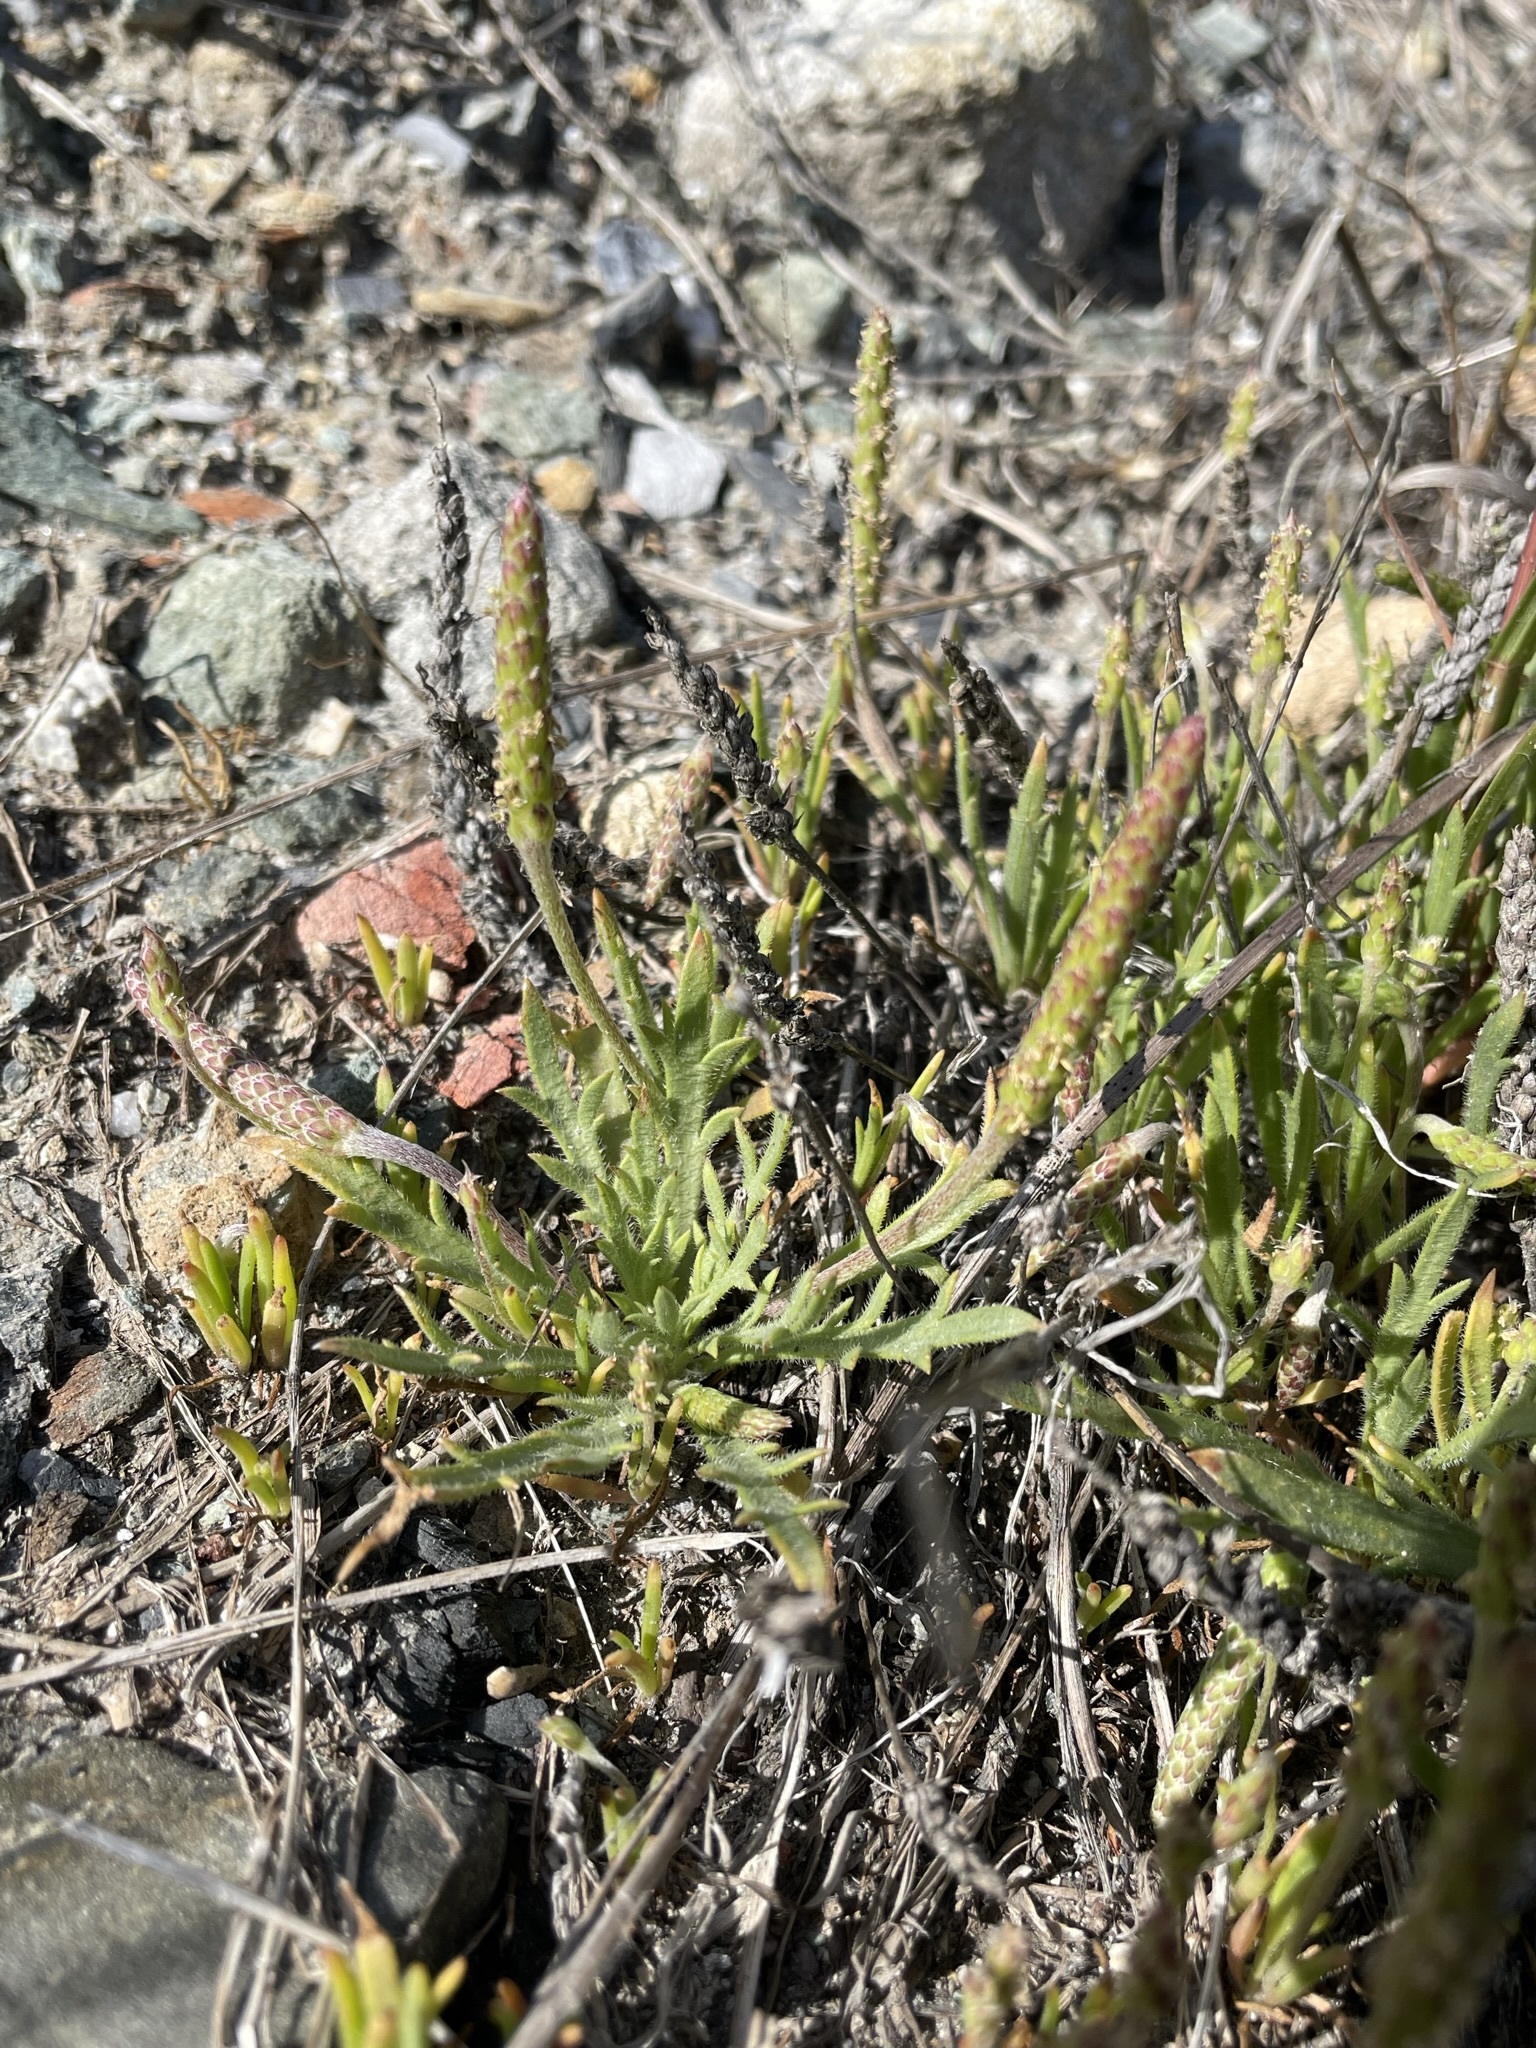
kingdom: Plantae
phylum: Tracheophyta
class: Magnoliopsida
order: Lamiales
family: Plantaginaceae
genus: Plantago
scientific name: Plantago coronopus
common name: Buck's-horn plantain
